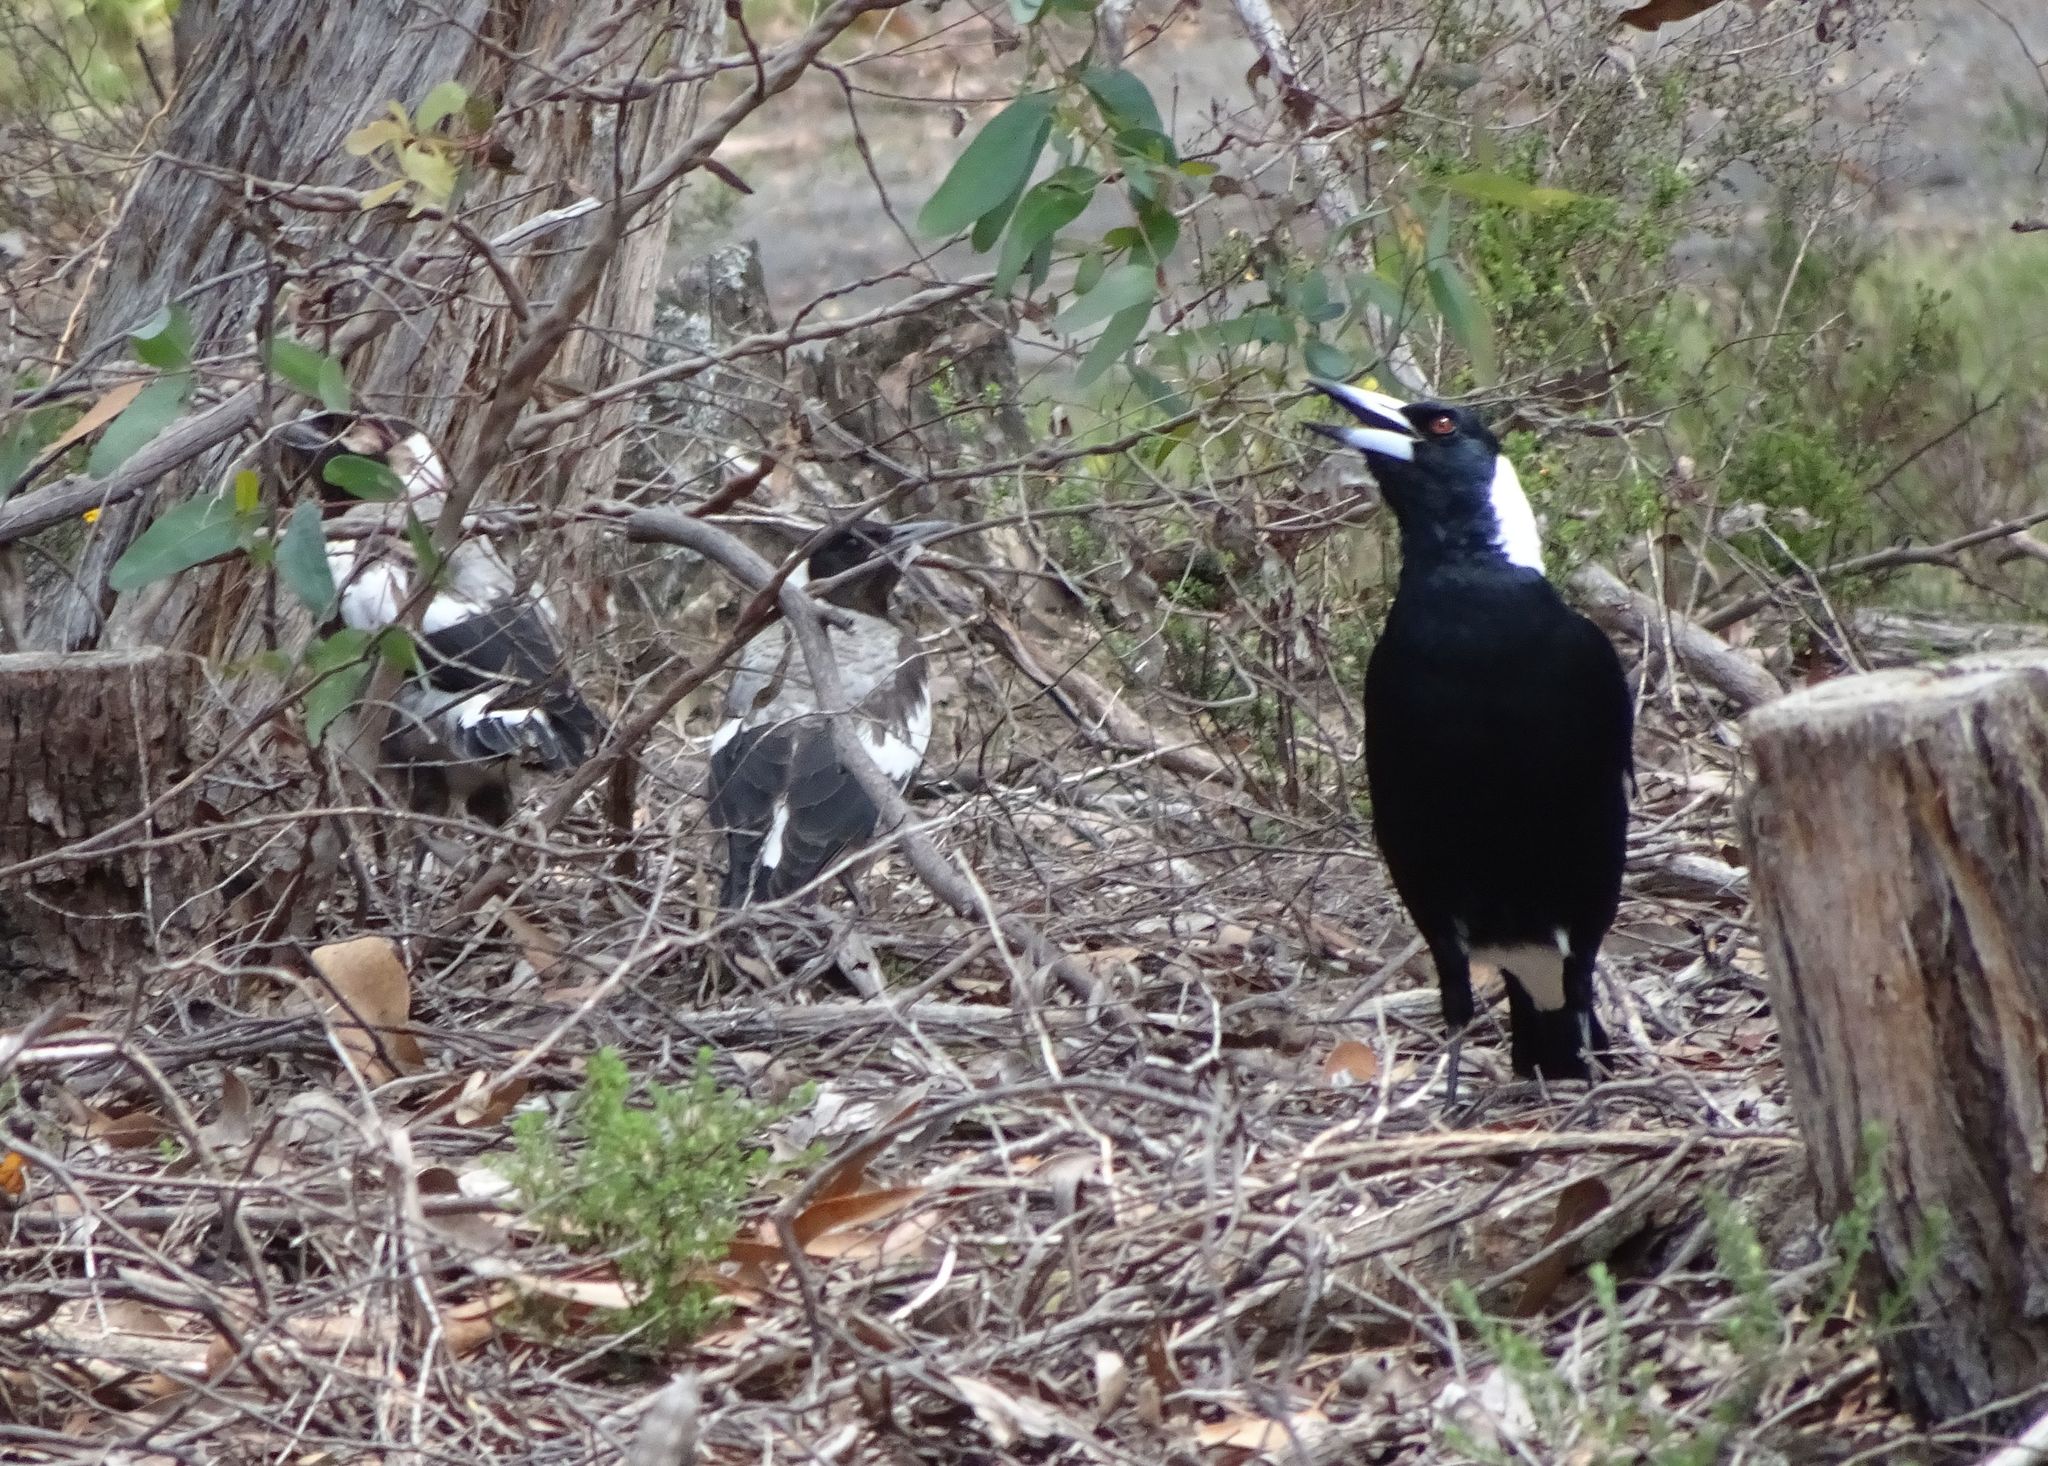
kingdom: Animalia
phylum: Chordata
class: Aves
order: Passeriformes
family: Cracticidae
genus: Gymnorhina
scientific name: Gymnorhina tibicen
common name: Australian magpie
